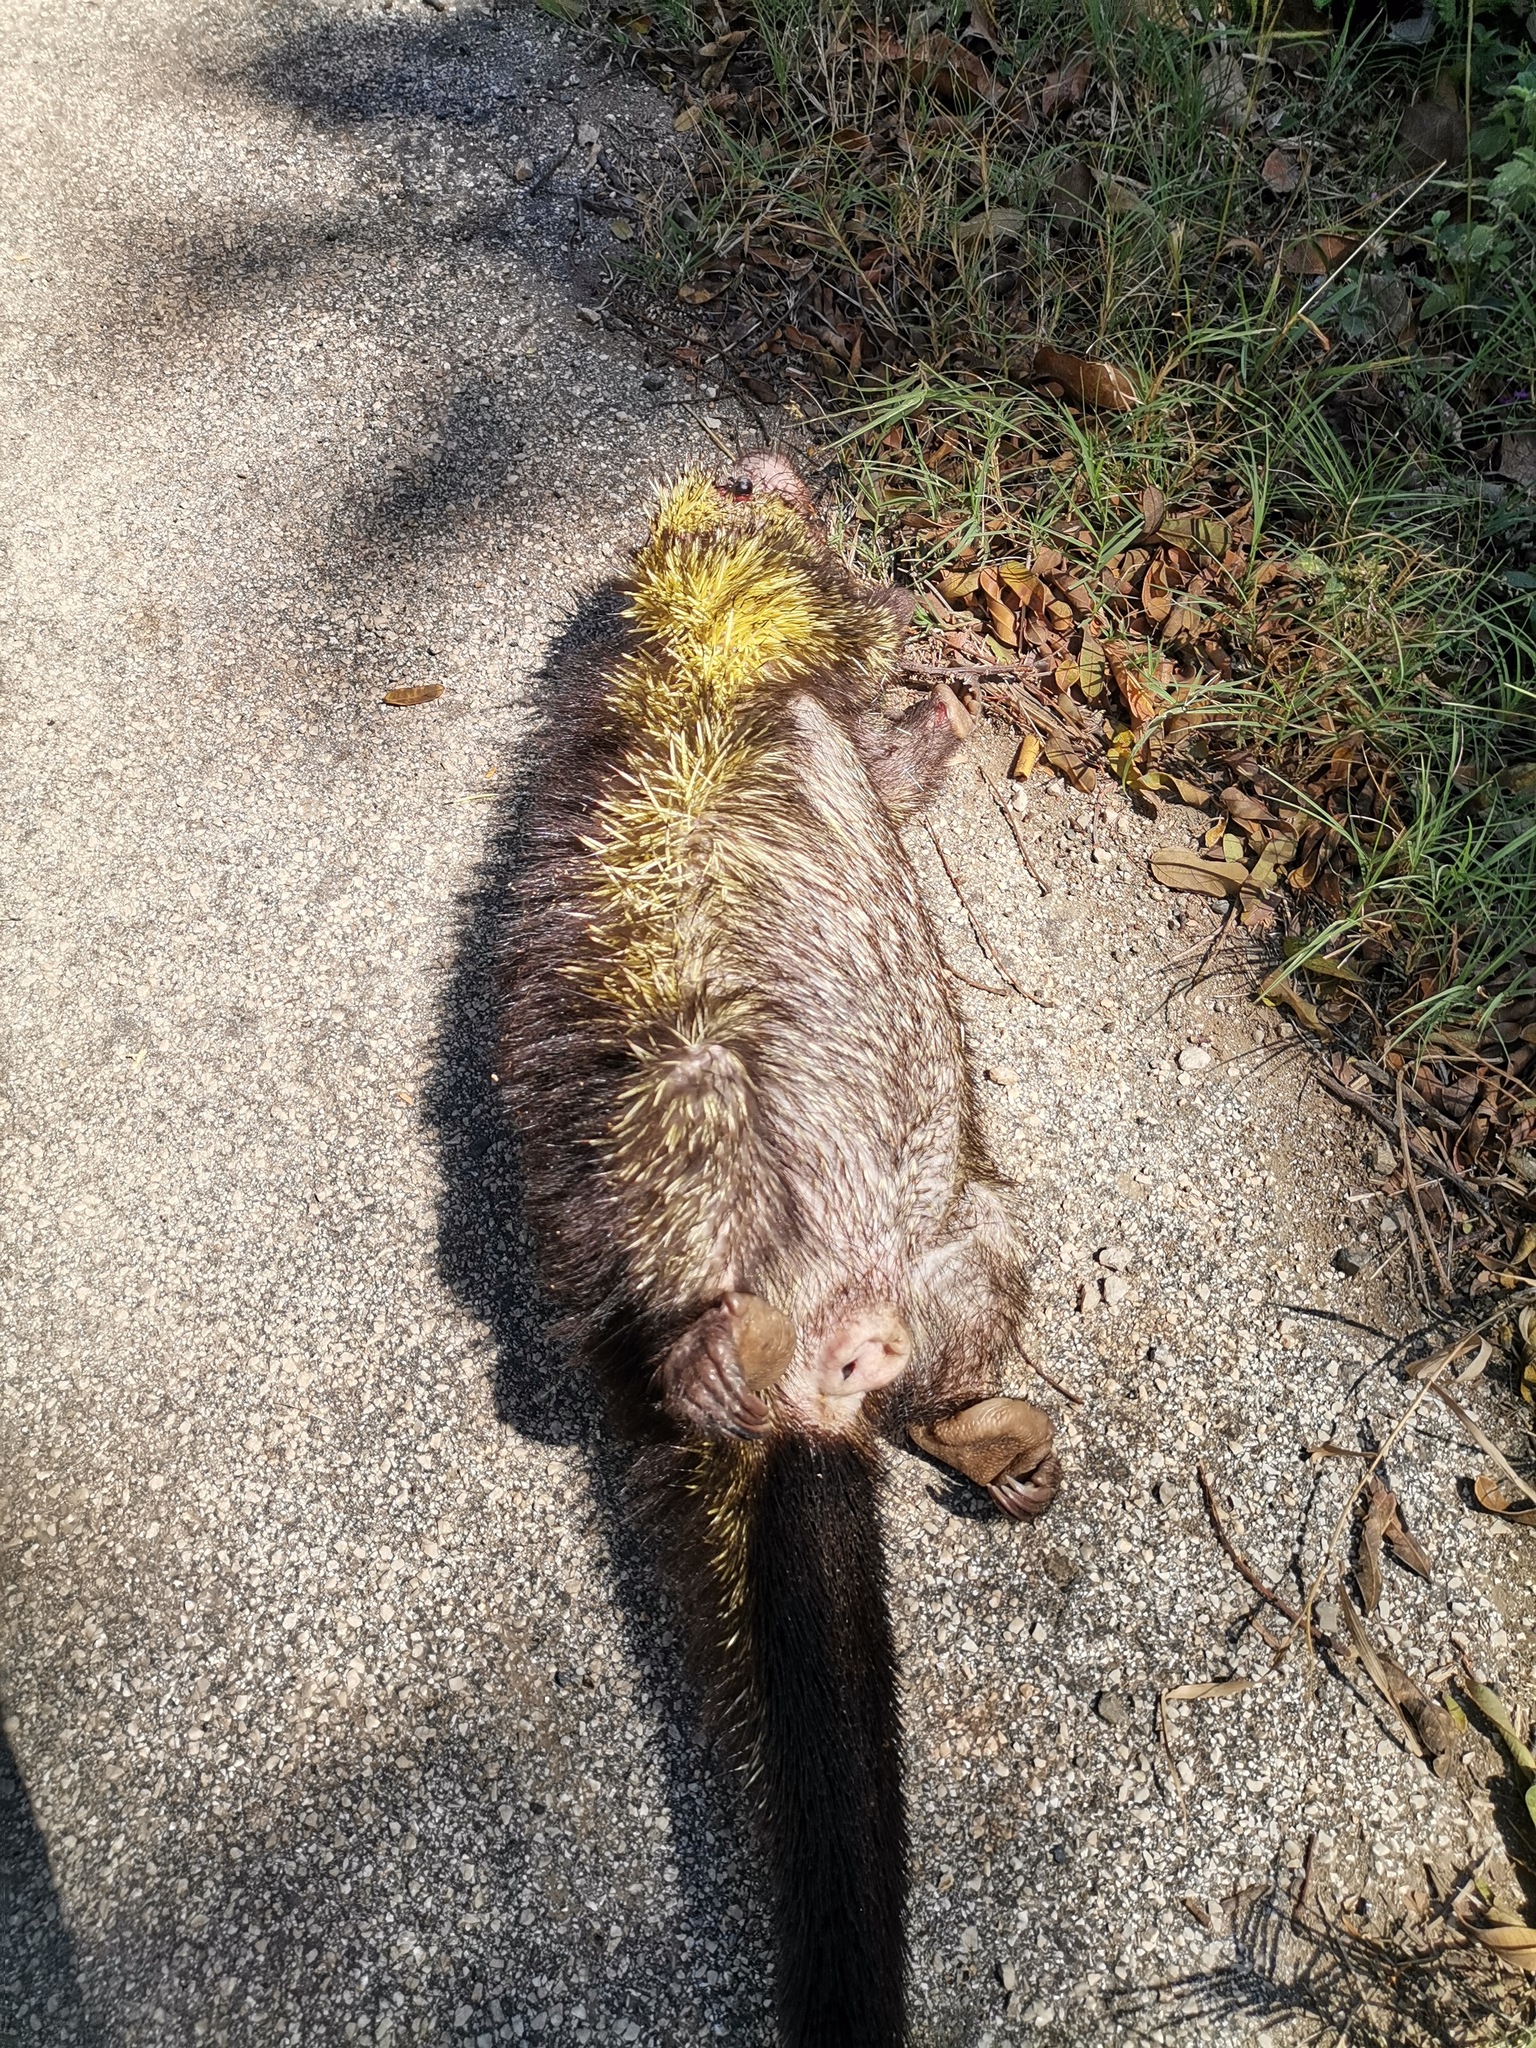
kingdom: Animalia
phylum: Chordata
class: Mammalia
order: Rodentia
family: Erethizontidae
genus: Sphiggurus
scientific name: Sphiggurus mexicanus
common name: Mexican hairy dwarf porcupine
